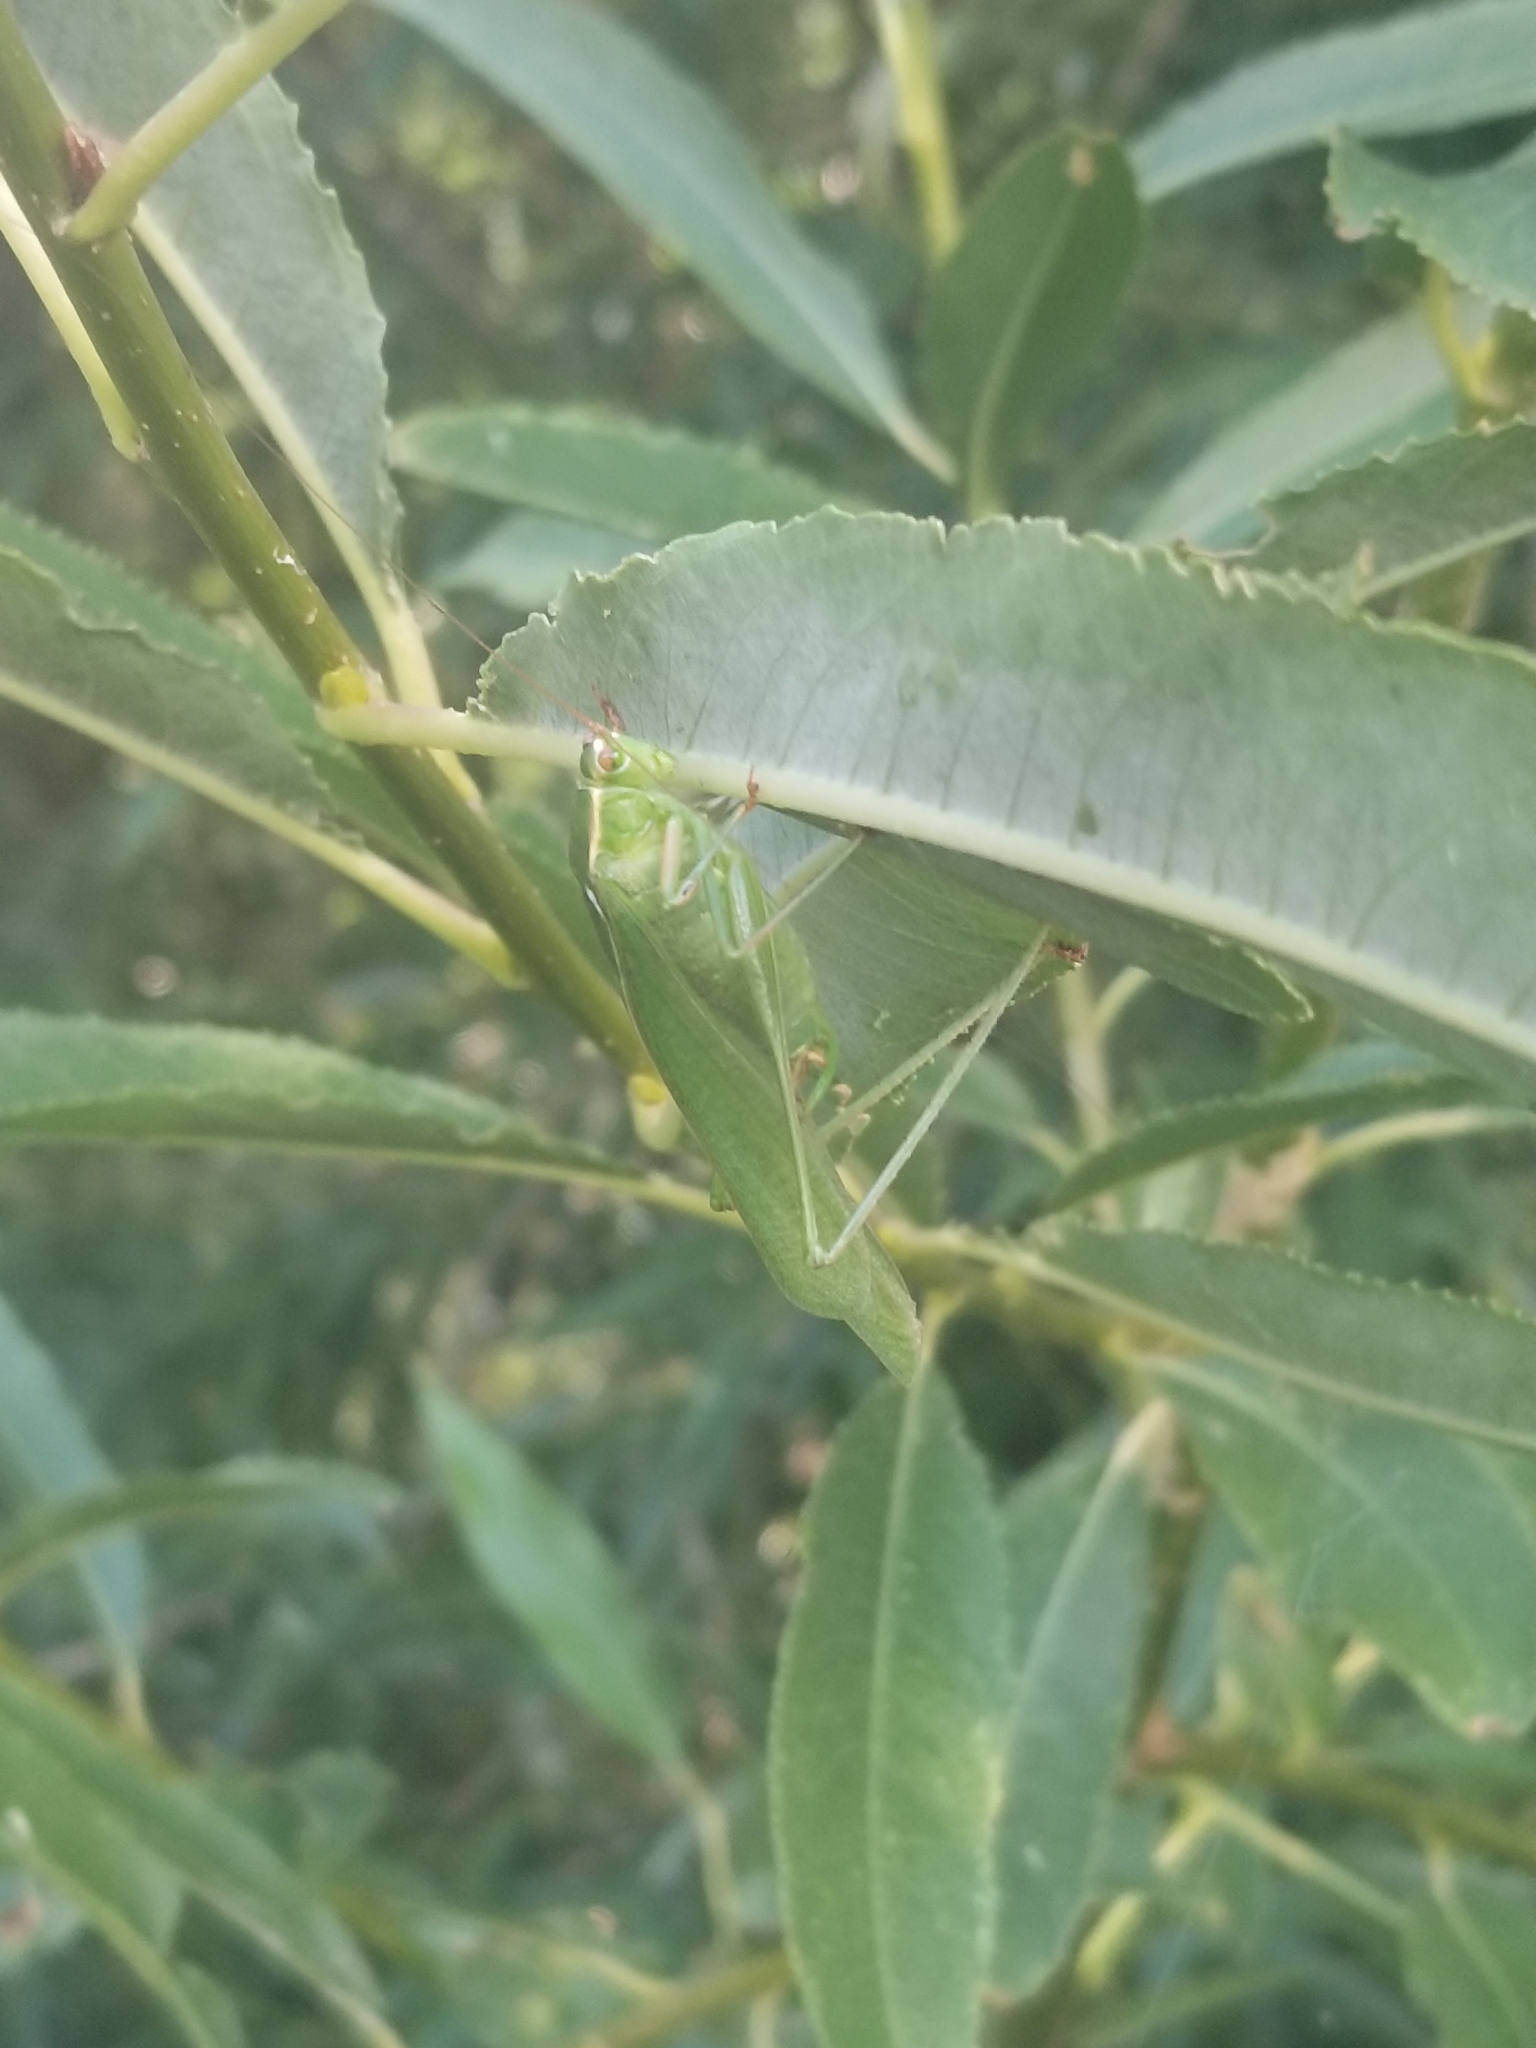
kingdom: Animalia
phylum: Arthropoda
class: Insecta
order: Orthoptera
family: Tettigoniidae
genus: Scudderia
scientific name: Scudderia furcata
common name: Fork-tailed bush katydid
